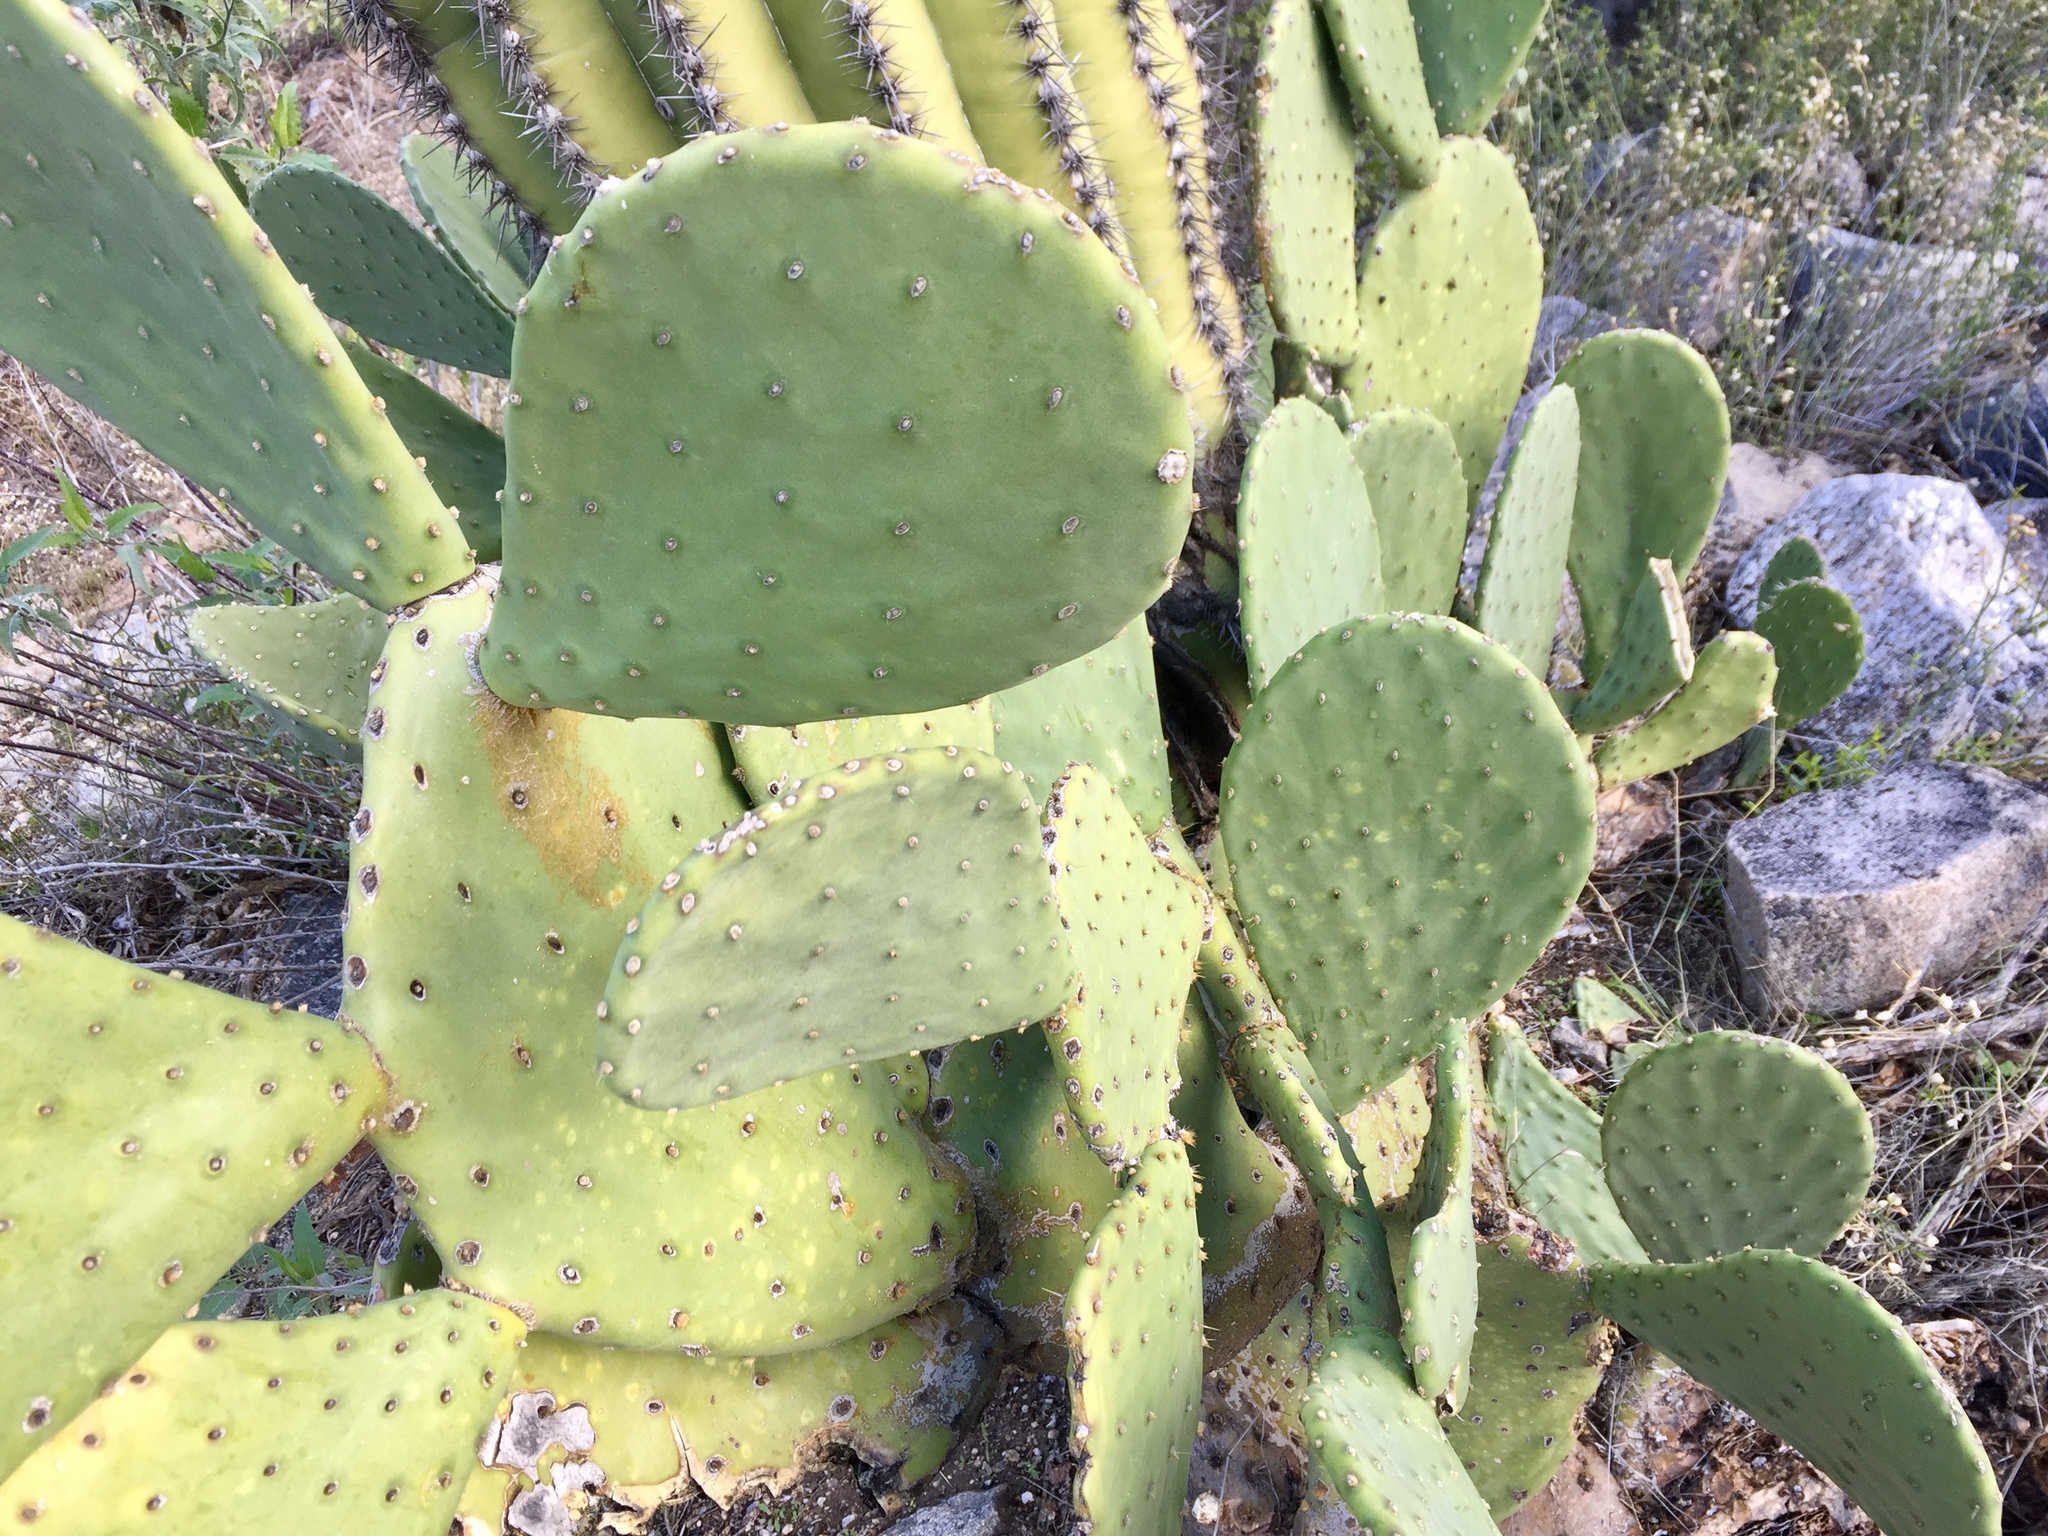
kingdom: Plantae
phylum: Tracheophyta
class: Magnoliopsida
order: Caryophyllales
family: Cactaceae
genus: Opuntia
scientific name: Opuntia ficus-indica
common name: Barbary fig
